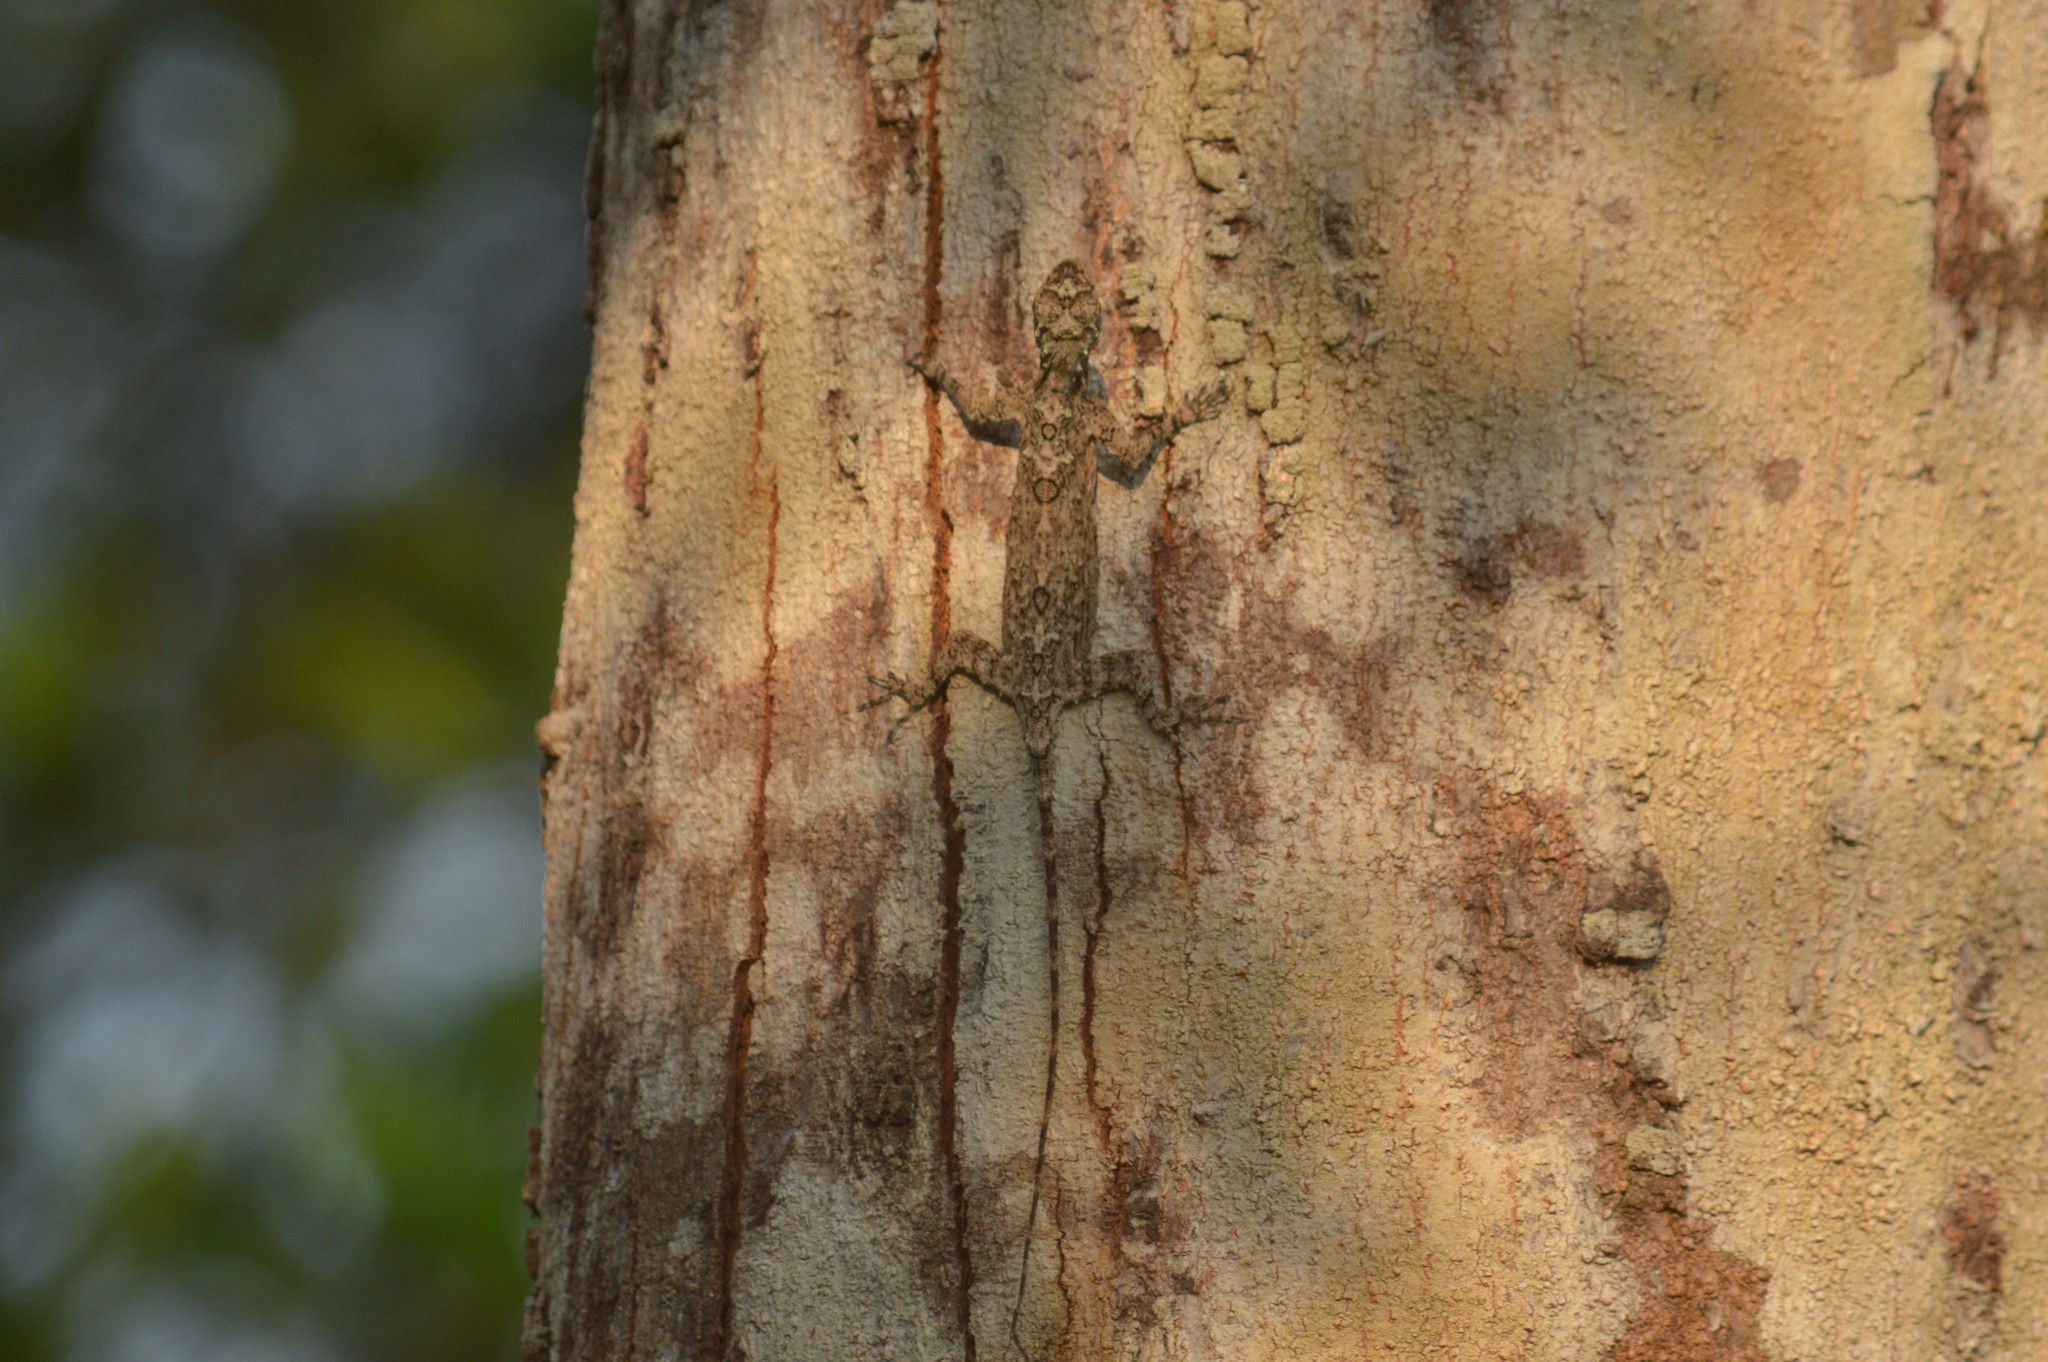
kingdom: Animalia
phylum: Chordata
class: Squamata
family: Agamidae
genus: Draco
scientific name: Draco dussumieri
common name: Southern flying lizard
